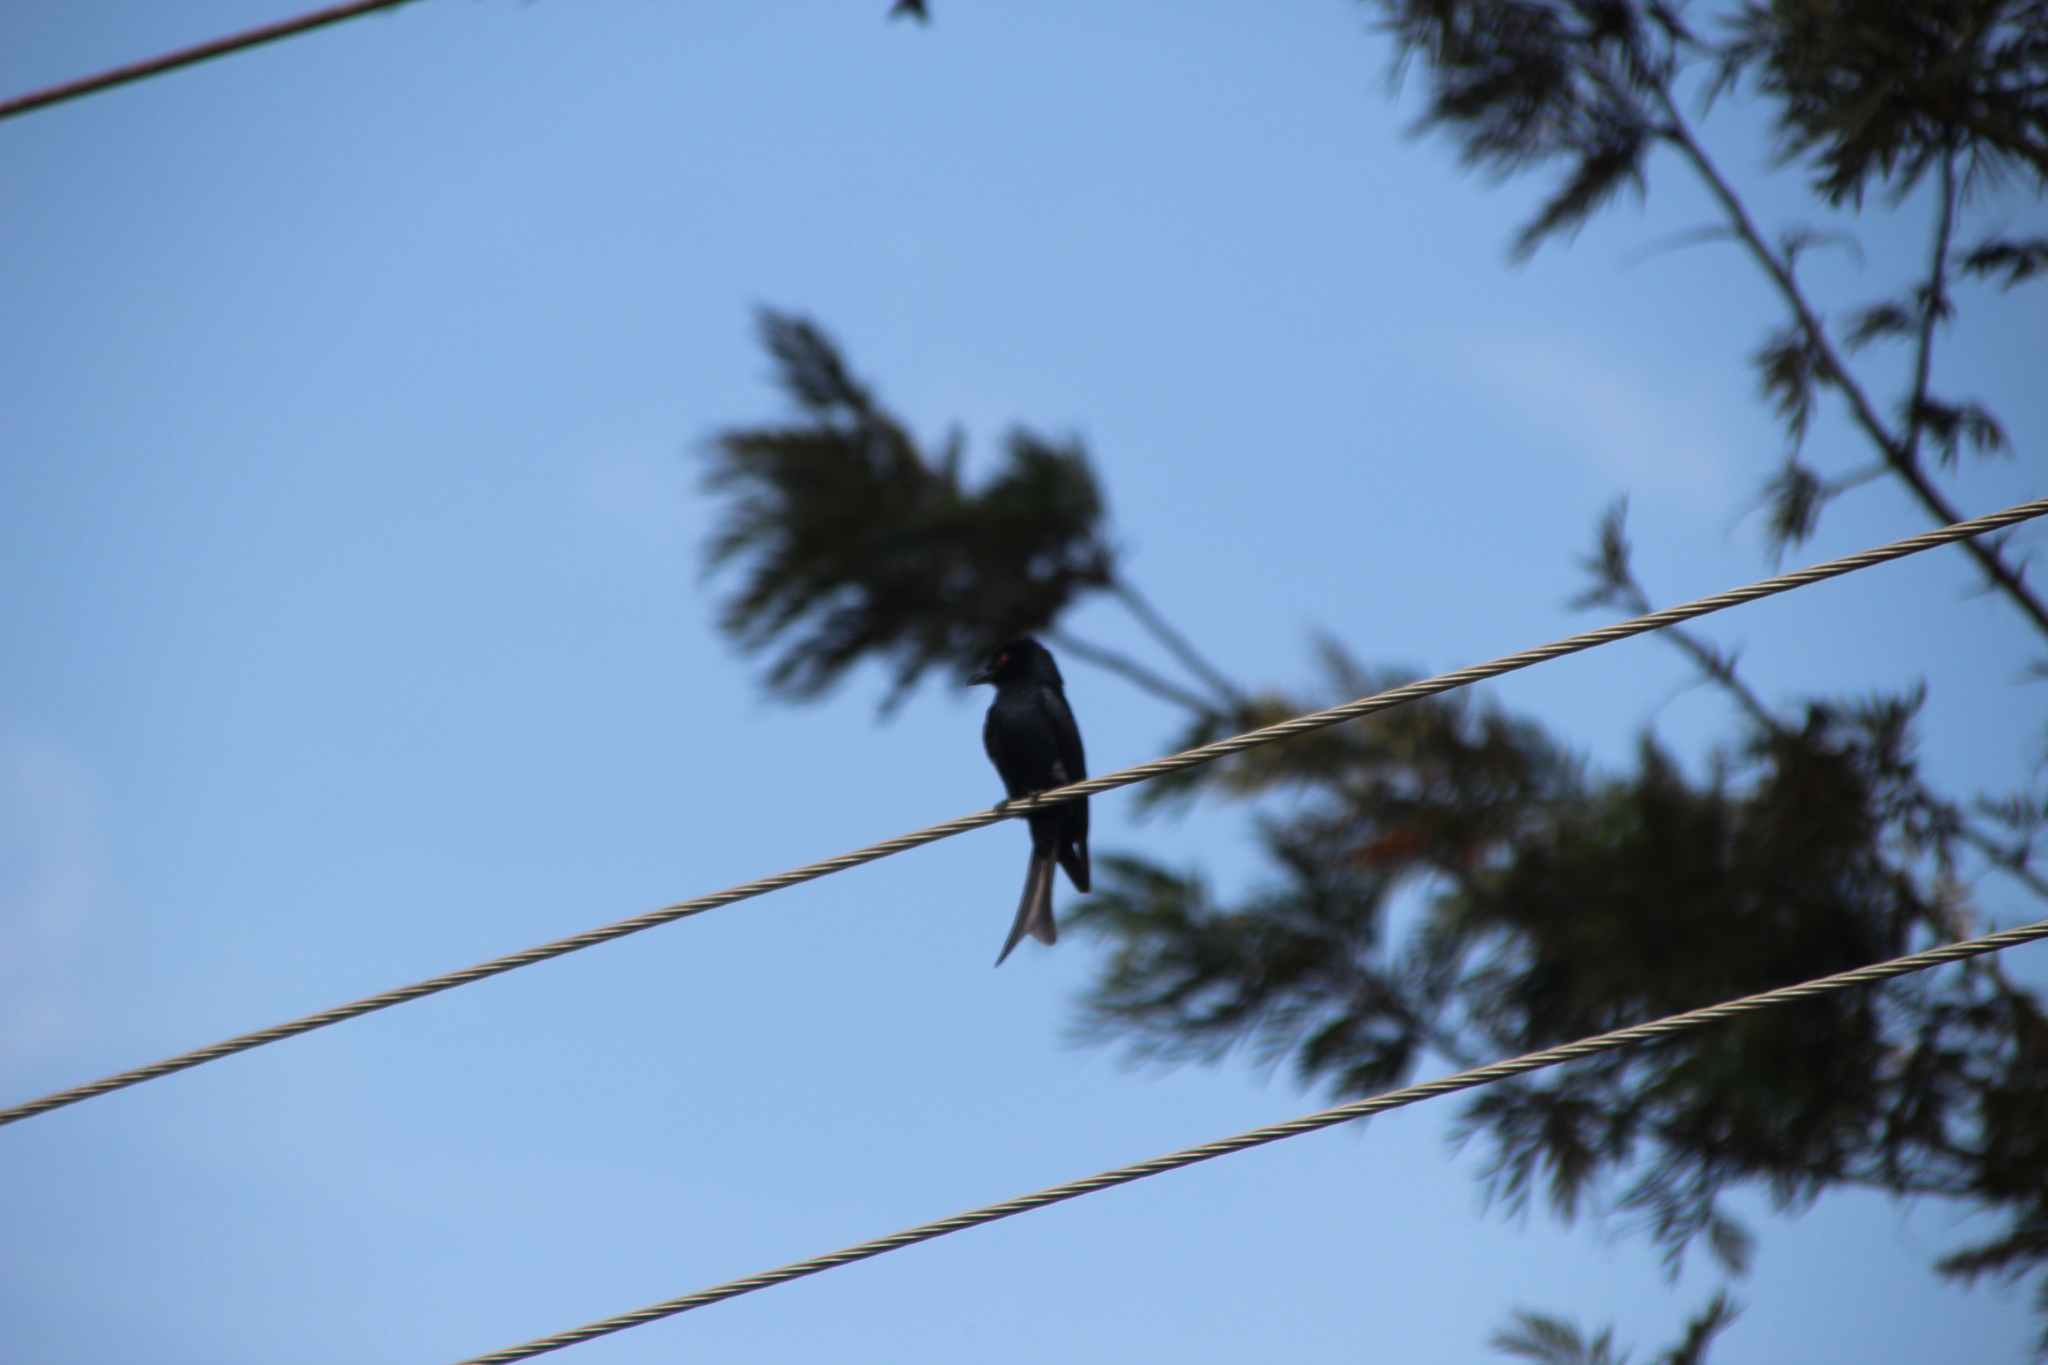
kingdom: Animalia
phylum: Chordata
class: Aves
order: Passeriformes
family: Dicruridae
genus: Dicrurus
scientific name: Dicrurus adsimilis
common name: Fork-tailed drongo
